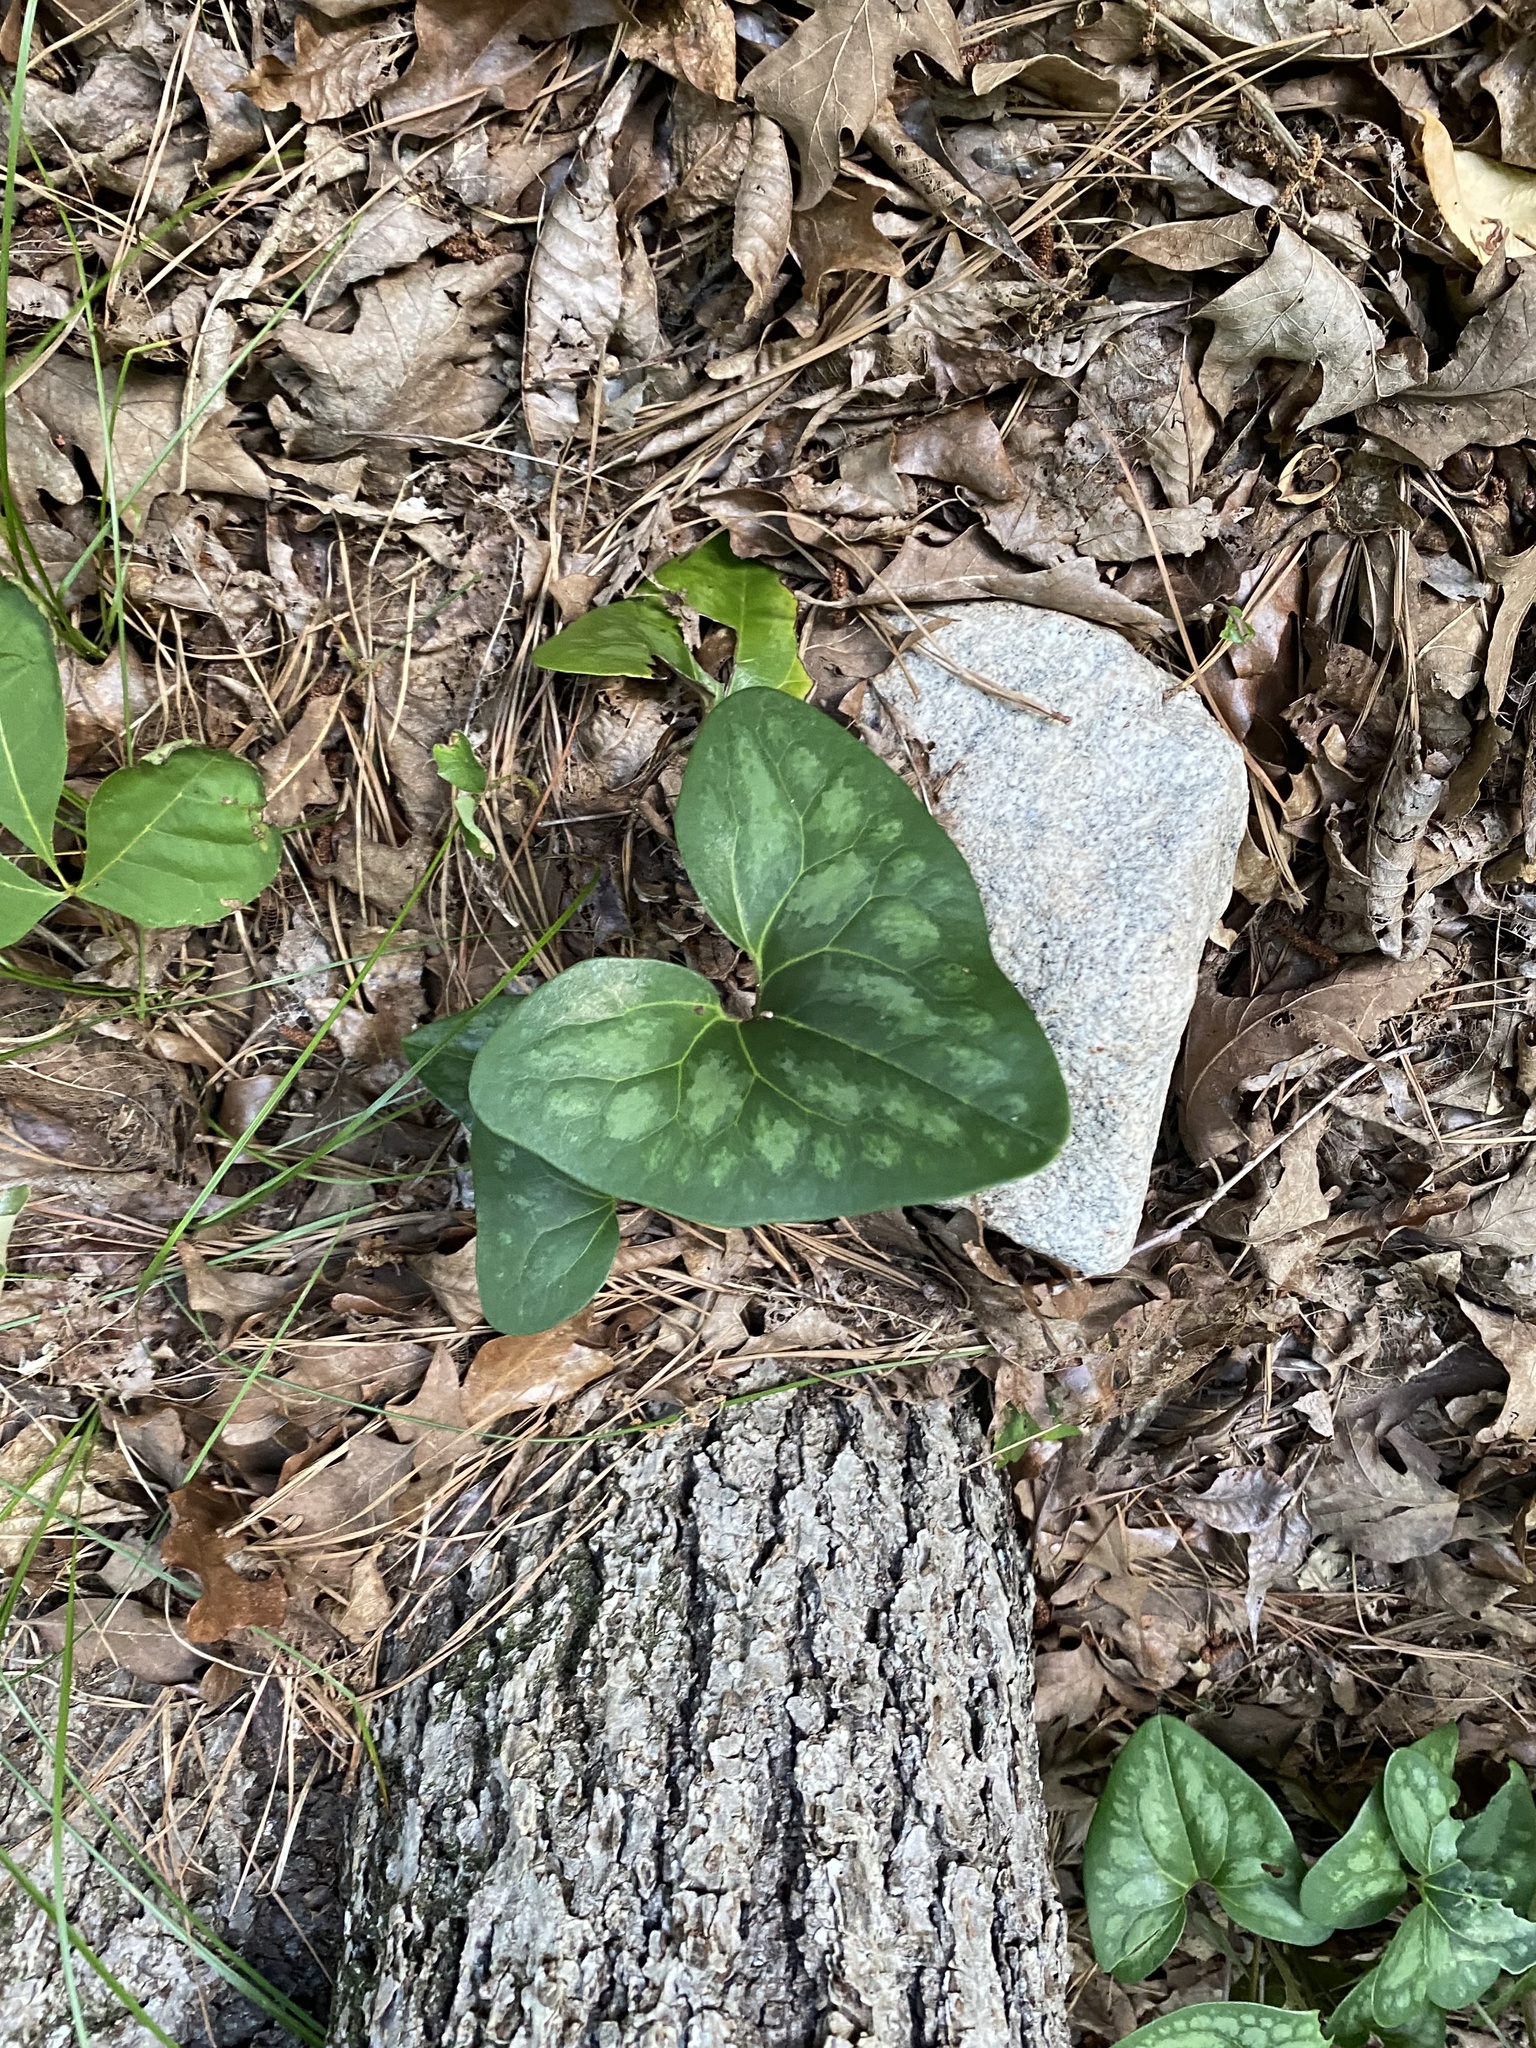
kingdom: Plantae
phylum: Tracheophyta
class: Magnoliopsida
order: Piperales
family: Aristolochiaceae
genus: Hexastylis
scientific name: Hexastylis arifolia
